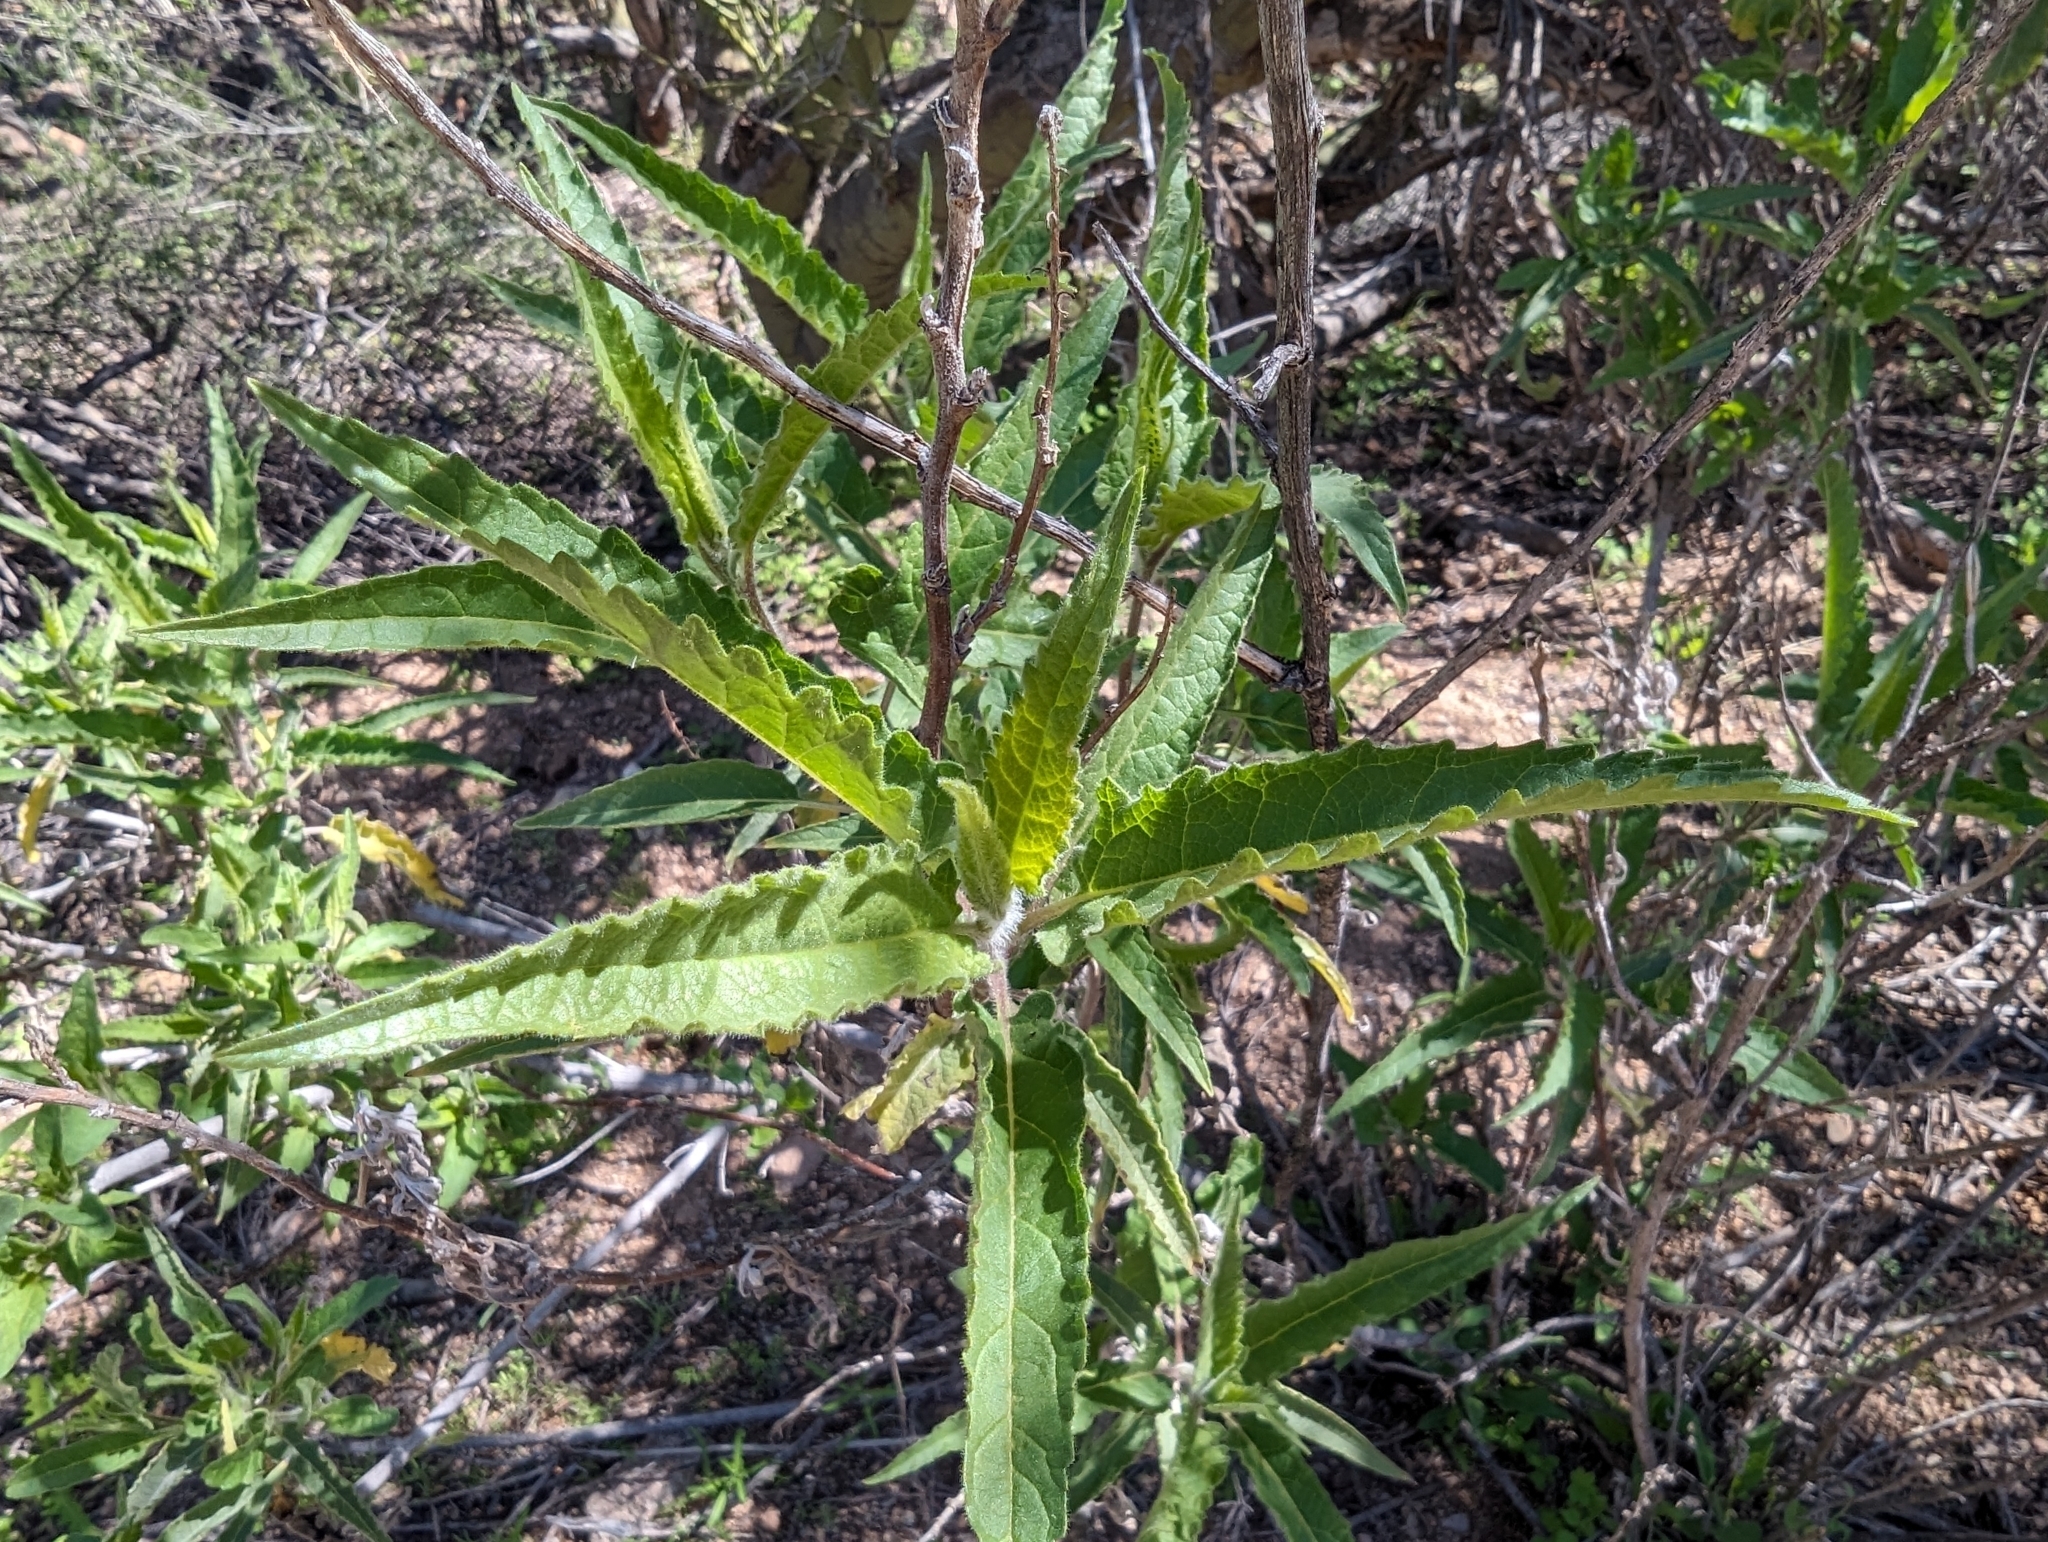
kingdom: Plantae
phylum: Tracheophyta
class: Magnoliopsida
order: Asterales
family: Asteraceae
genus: Ambrosia
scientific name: Ambrosia ambrosioides
